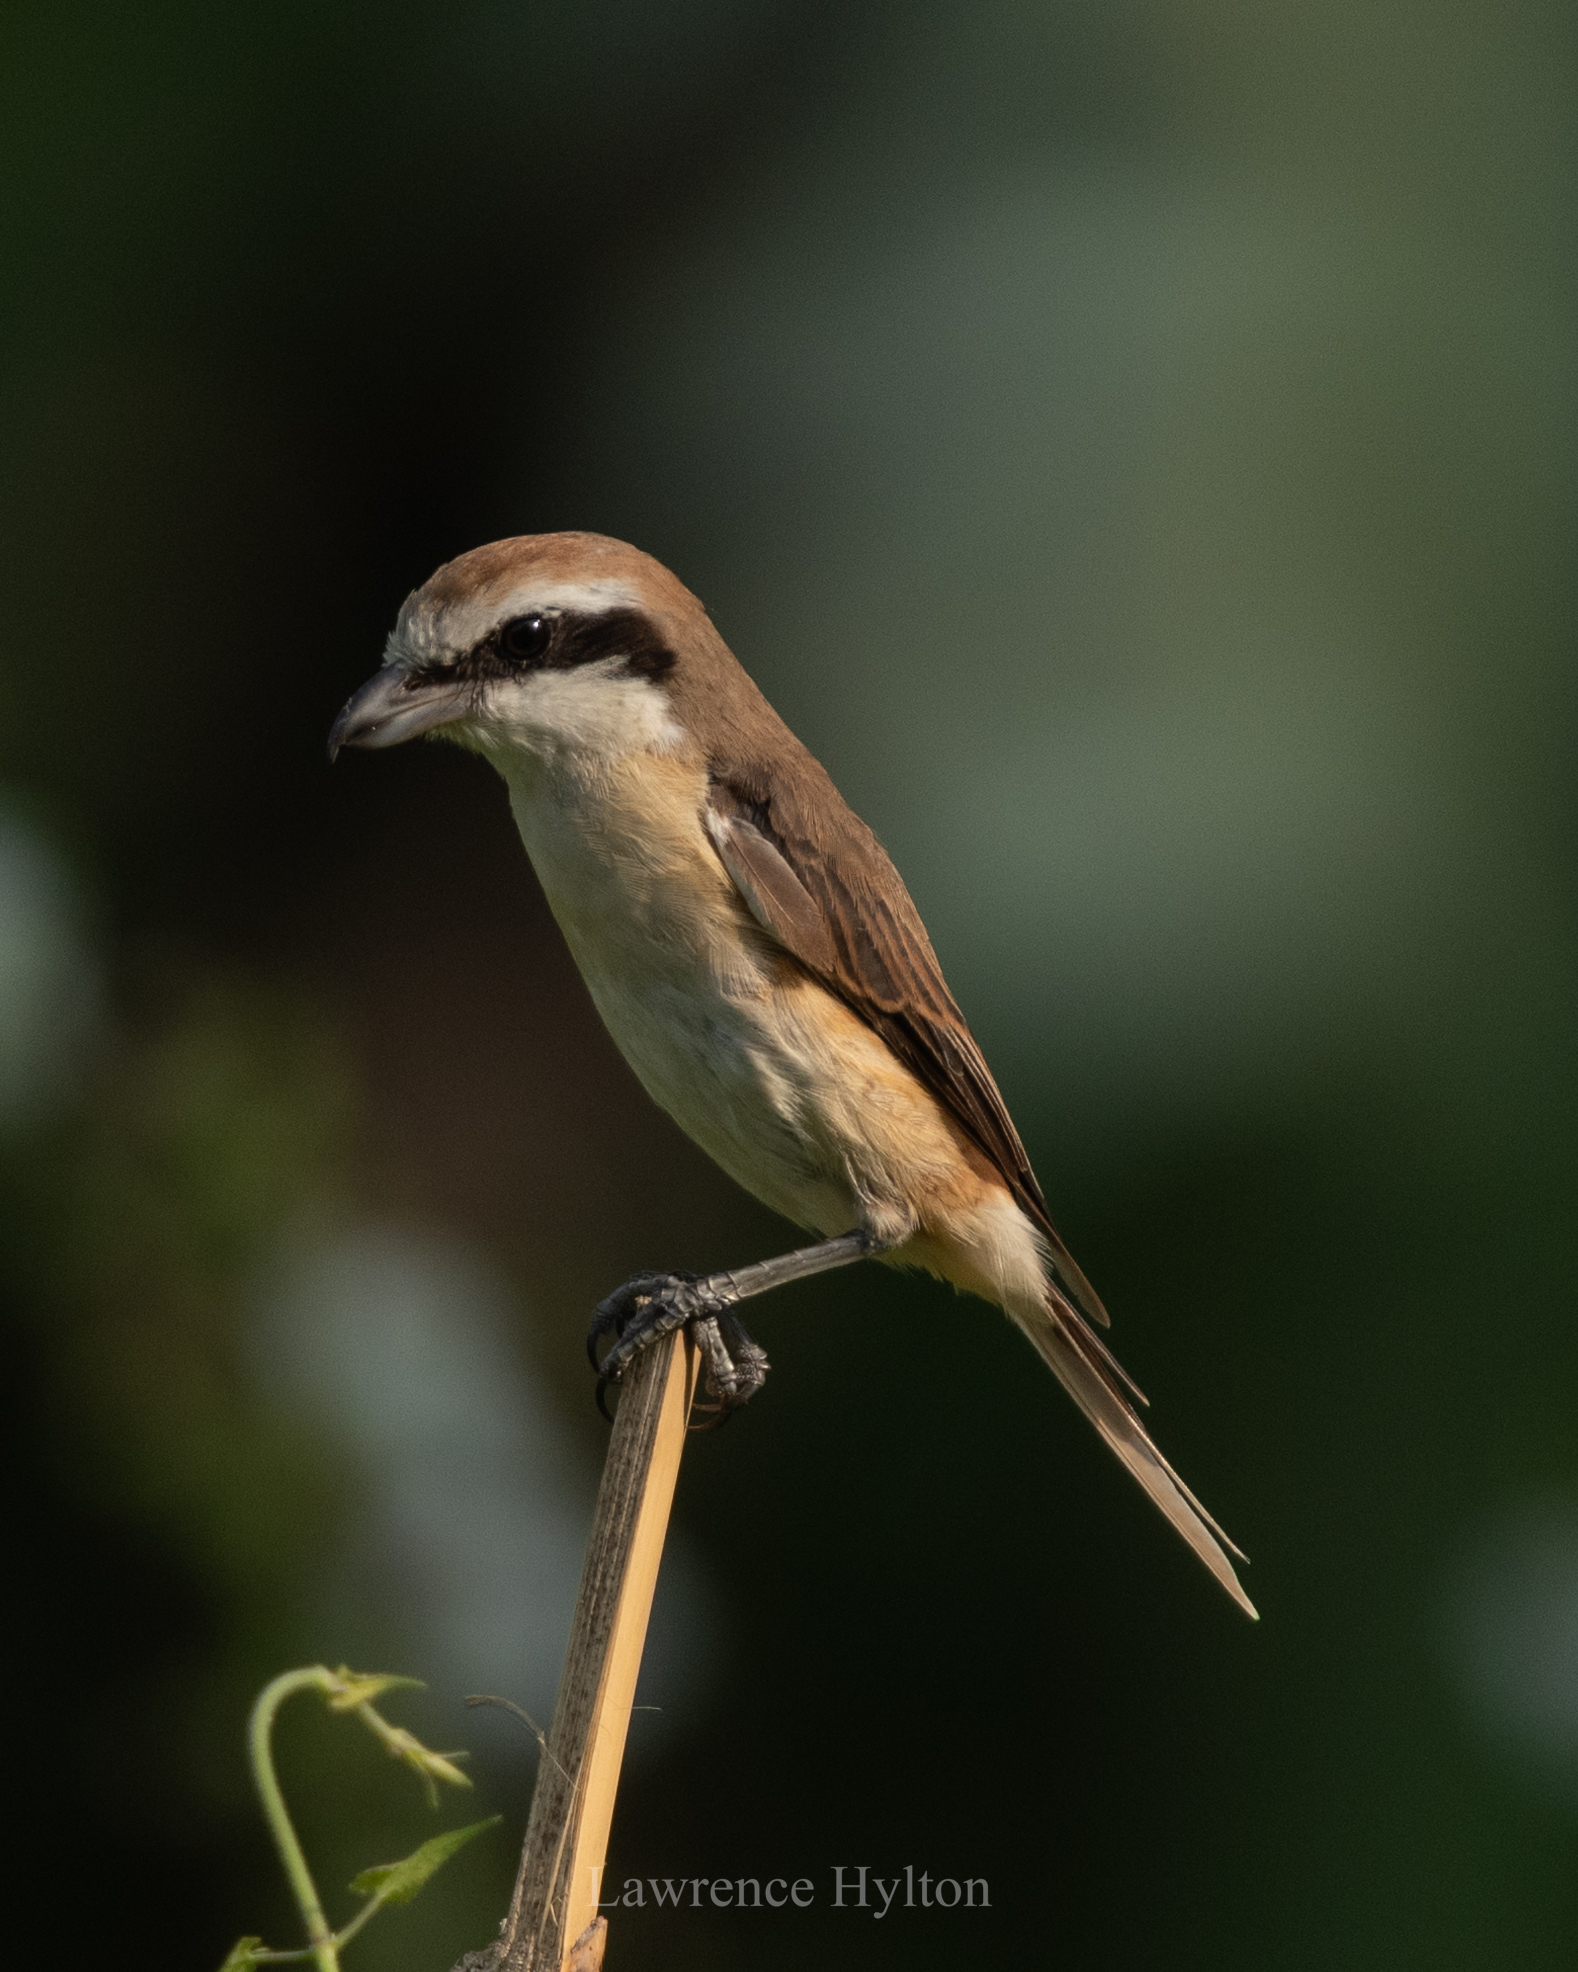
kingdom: Animalia
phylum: Chordata
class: Aves
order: Passeriformes
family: Laniidae
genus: Lanius
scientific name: Lanius cristatus
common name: Brown shrike
